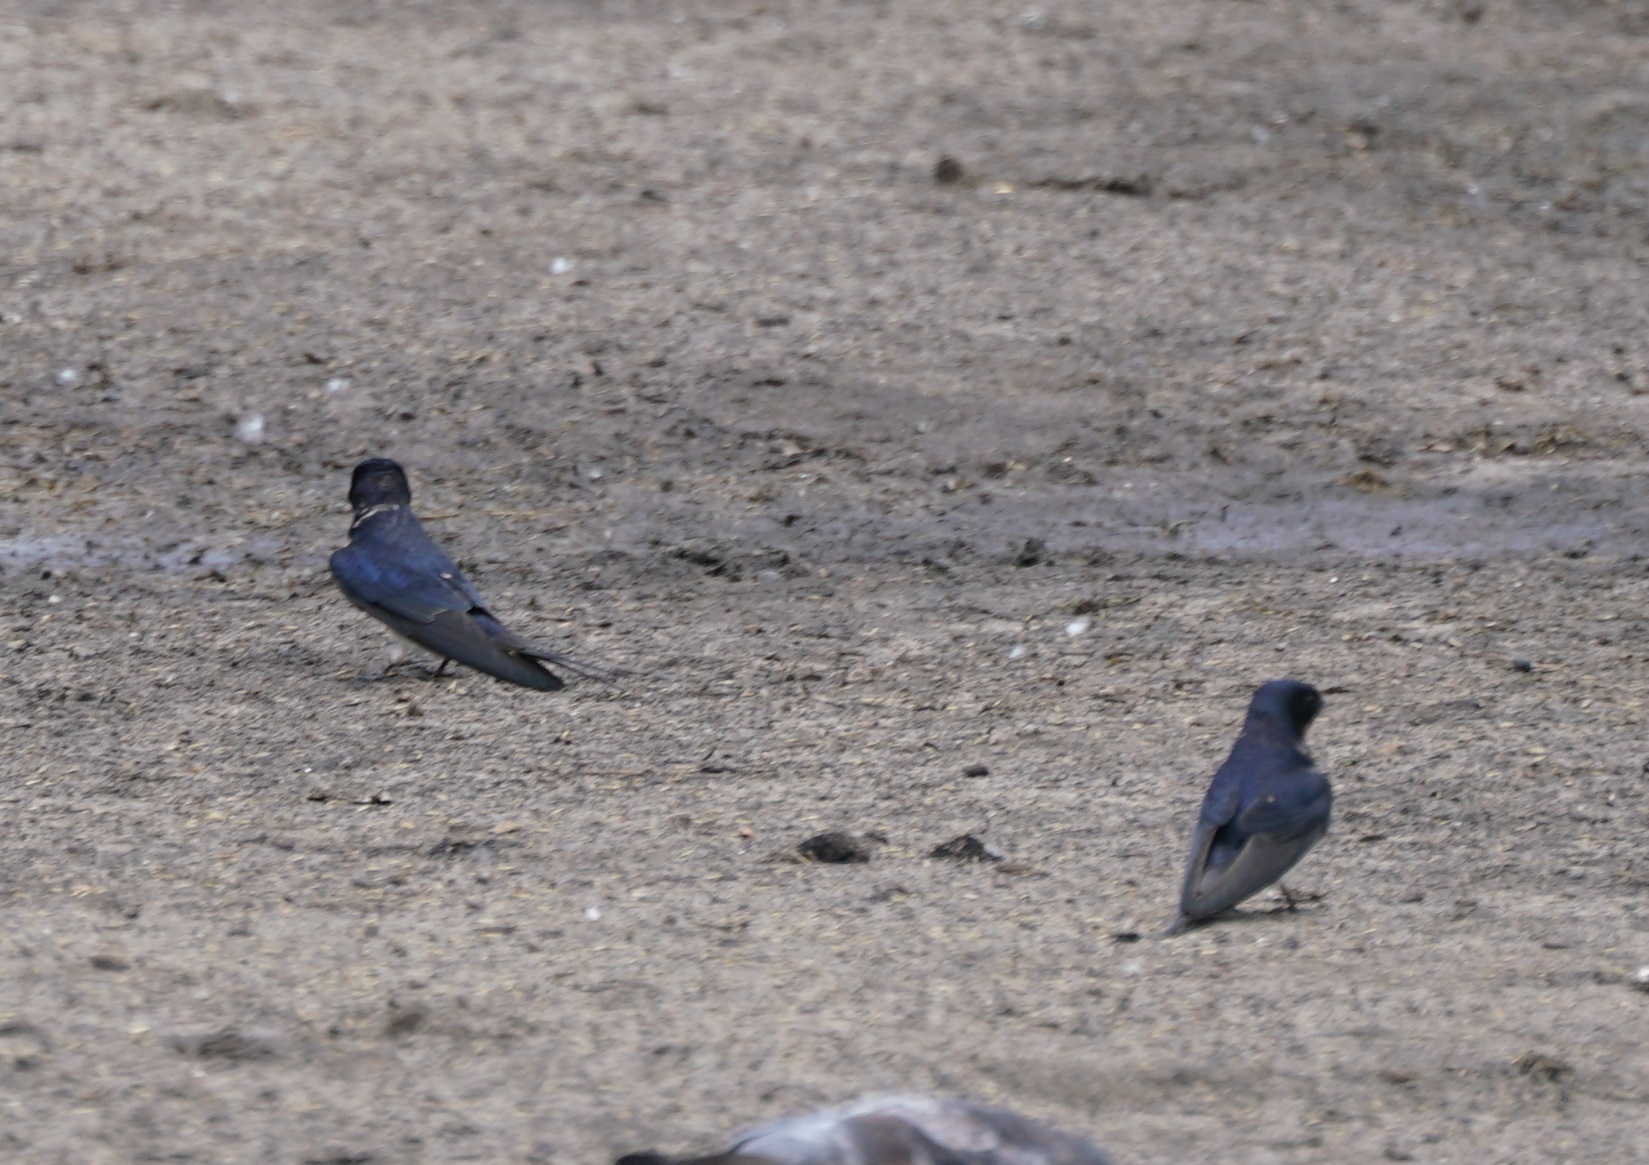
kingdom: Animalia
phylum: Chordata
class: Aves
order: Passeriformes
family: Hirundinidae
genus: Hirundo
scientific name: Hirundo rustica
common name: Barn swallow
